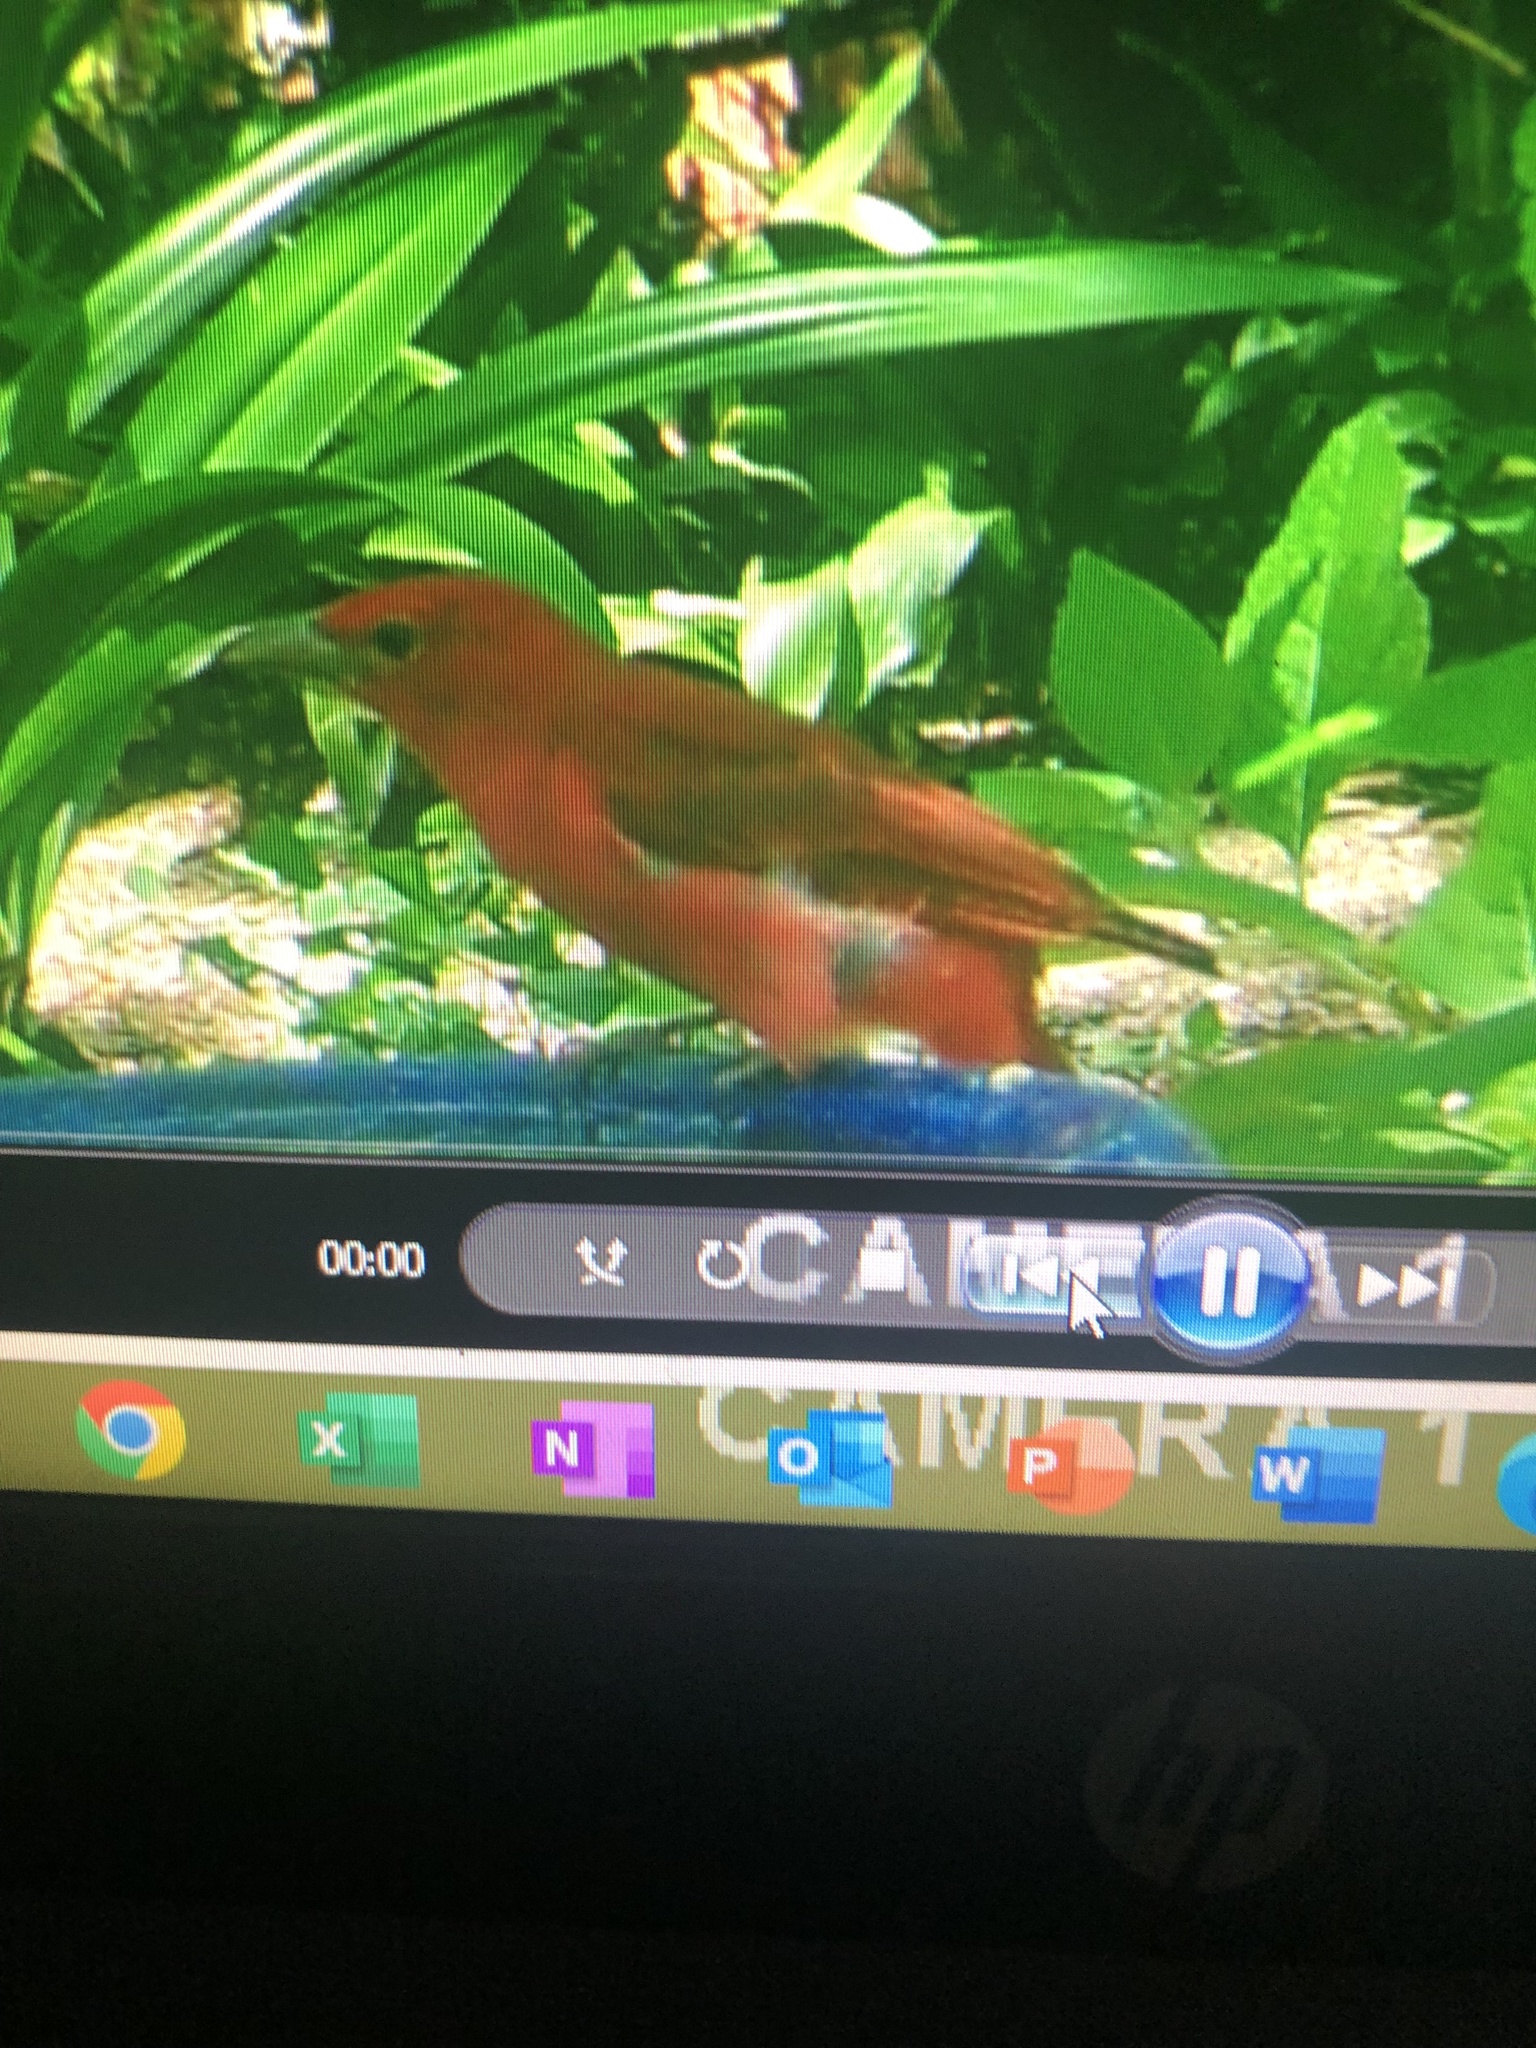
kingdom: Animalia
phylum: Chordata
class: Aves
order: Passeriformes
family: Cardinalidae
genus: Piranga
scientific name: Piranga rubra
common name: Summer tanager
